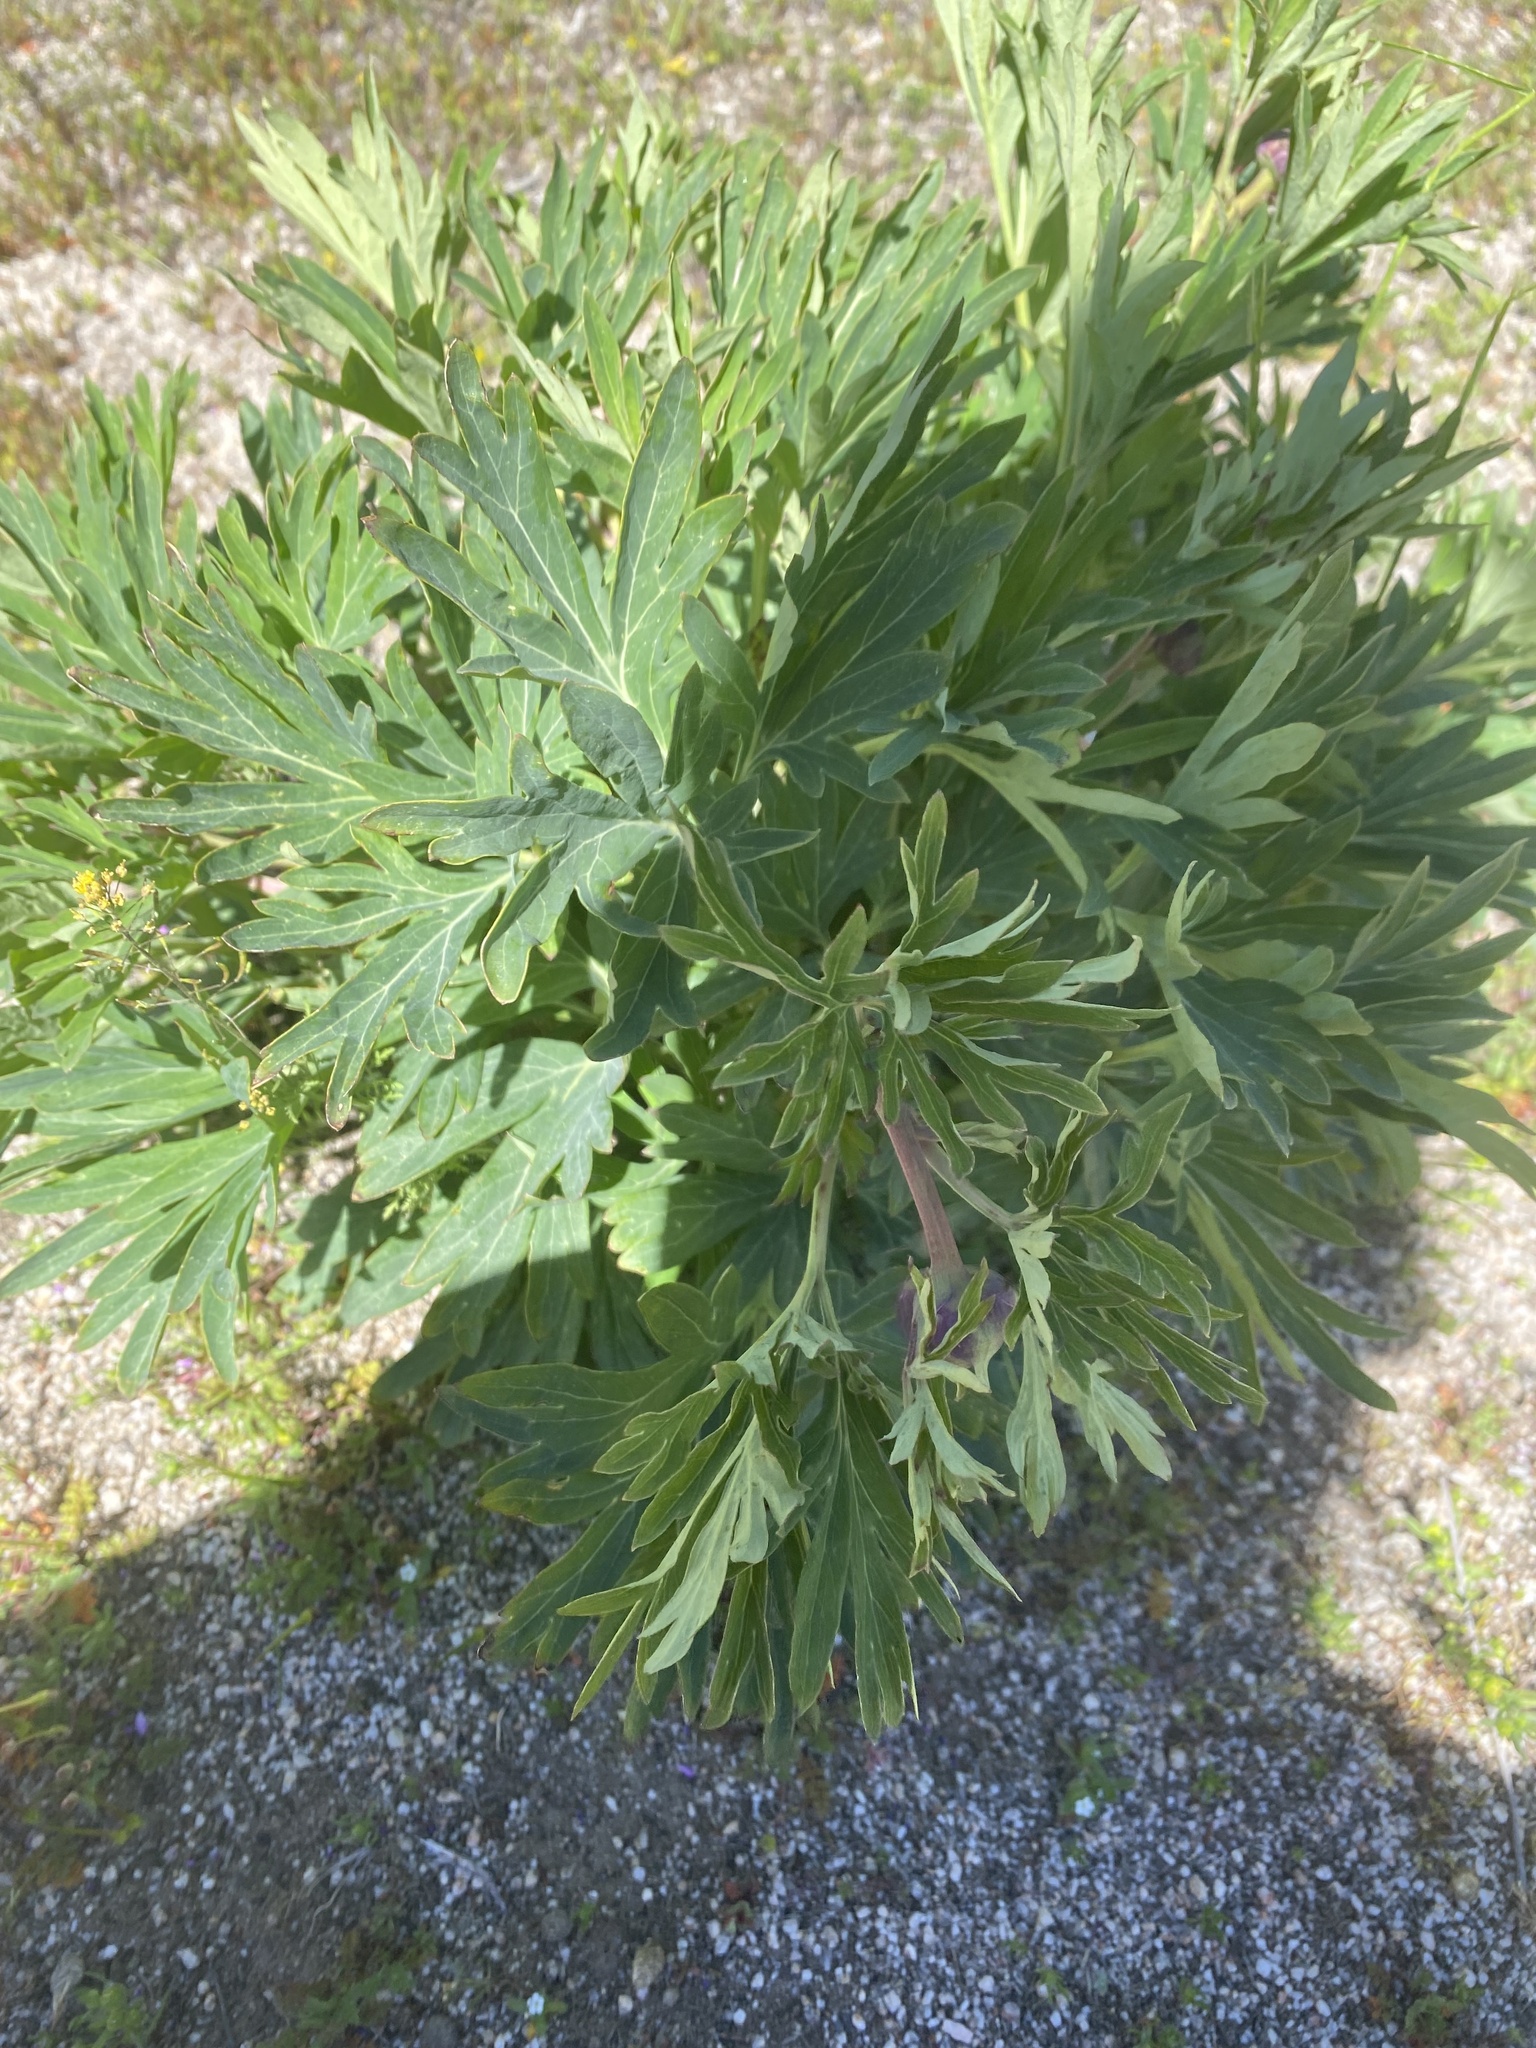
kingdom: Plantae
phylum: Tracheophyta
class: Magnoliopsida
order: Saxifragales
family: Paeoniaceae
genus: Paeonia
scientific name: Paeonia californica
